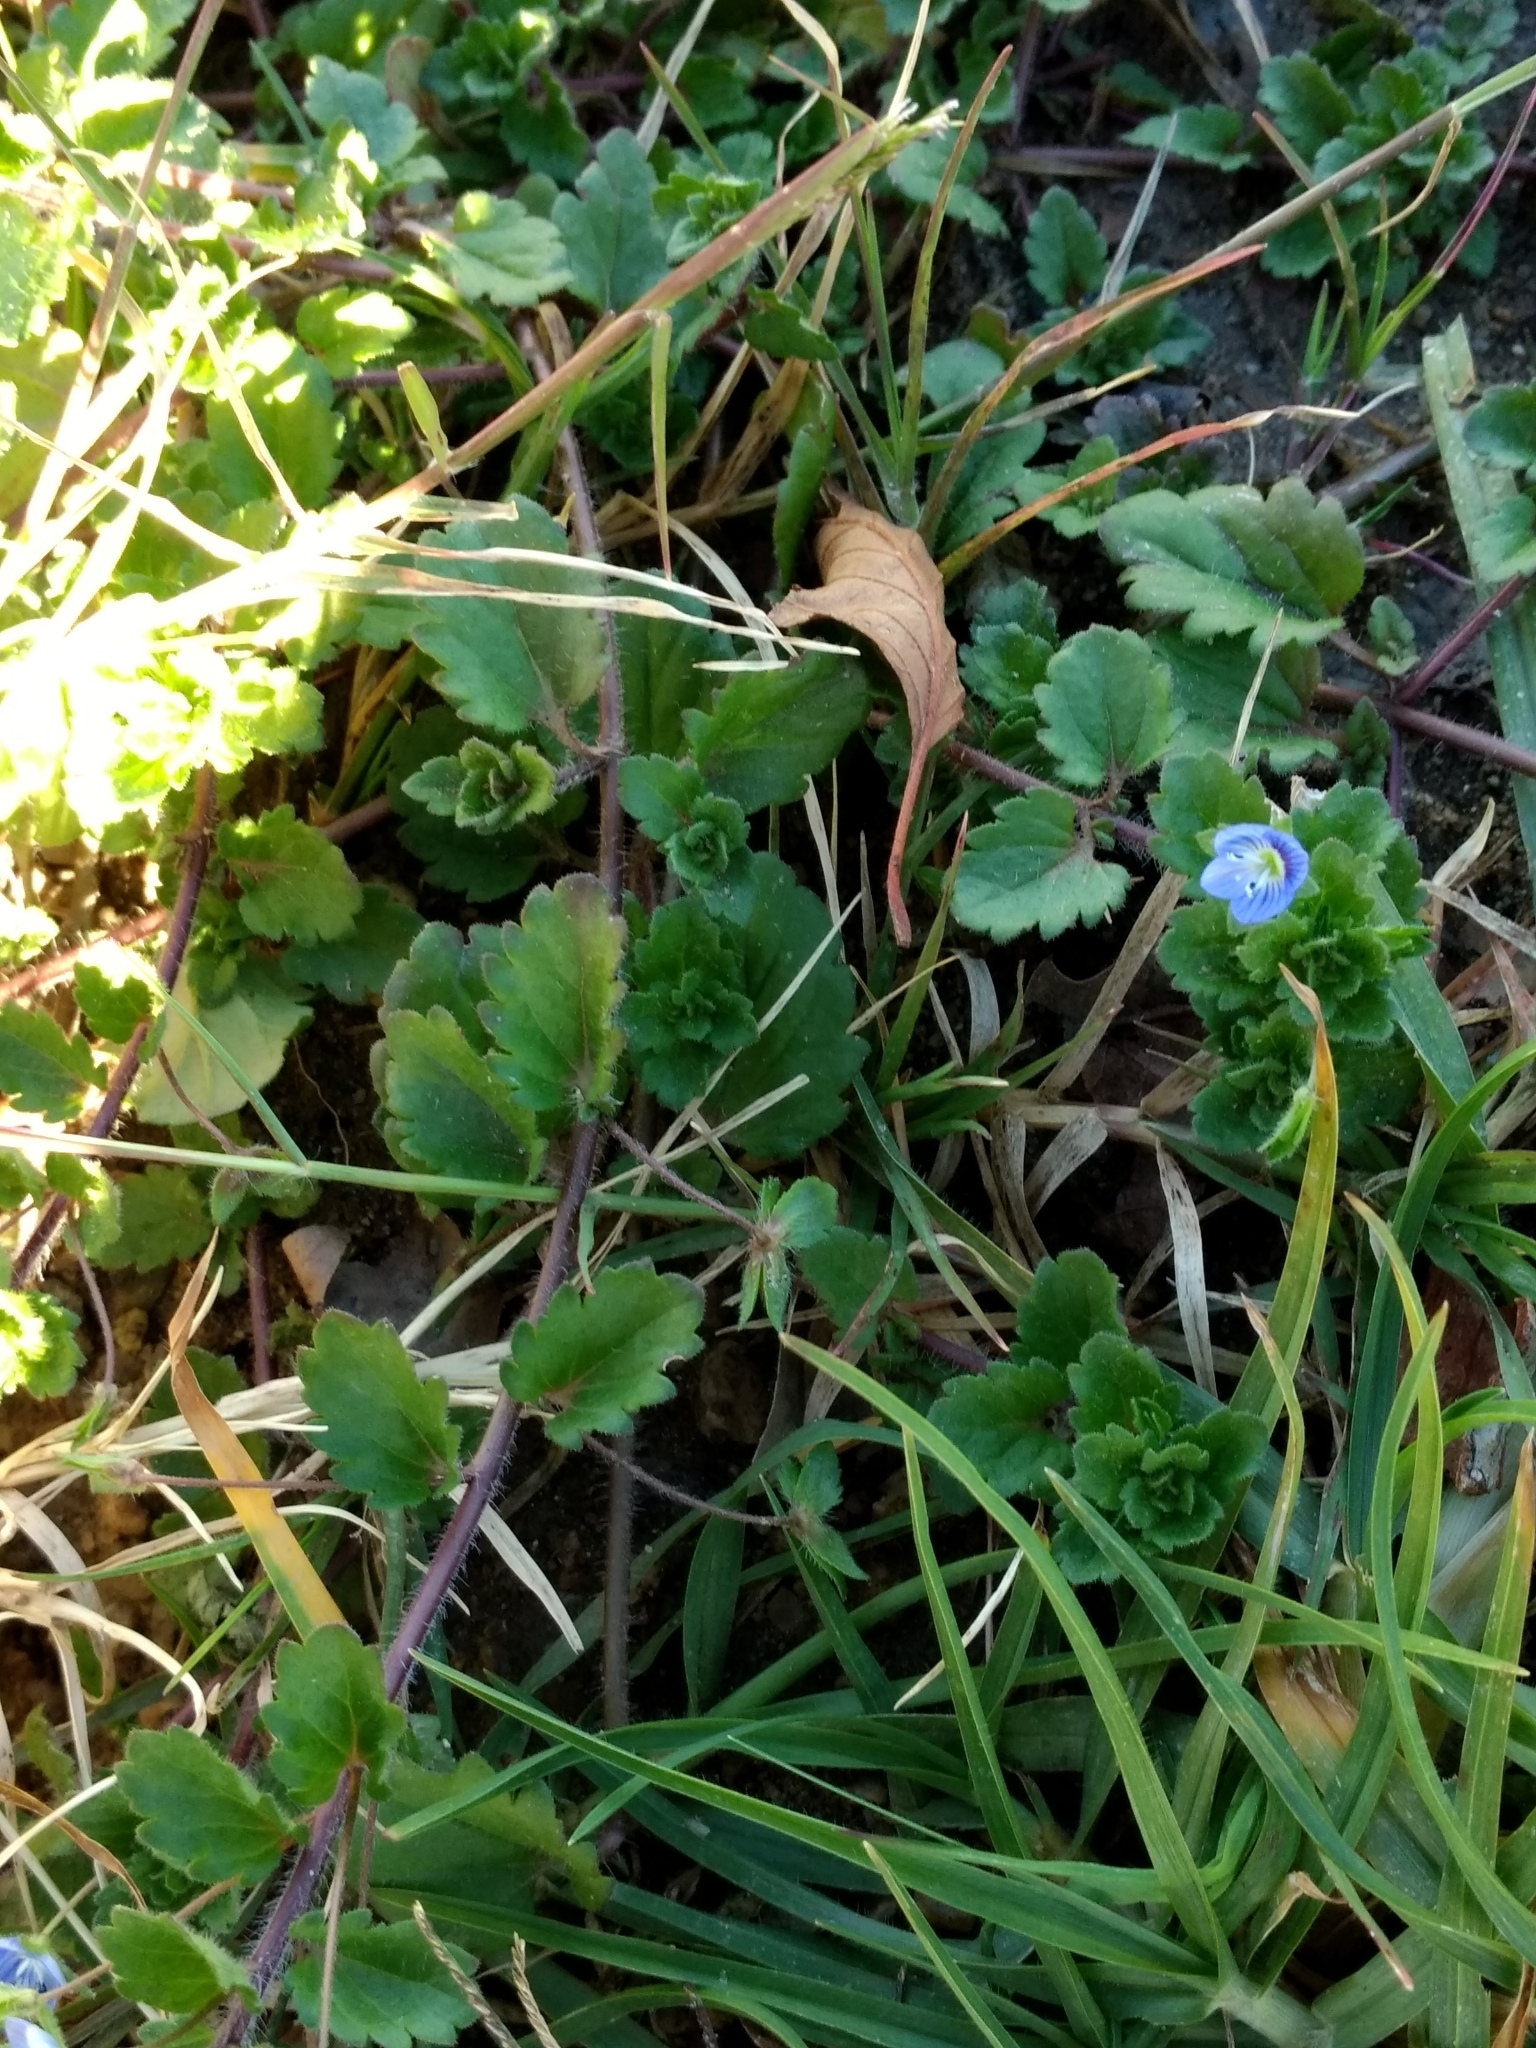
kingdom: Plantae
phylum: Tracheophyta
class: Magnoliopsida
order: Lamiales
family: Plantaginaceae
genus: Veronica
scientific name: Veronica persica
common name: Common field-speedwell
